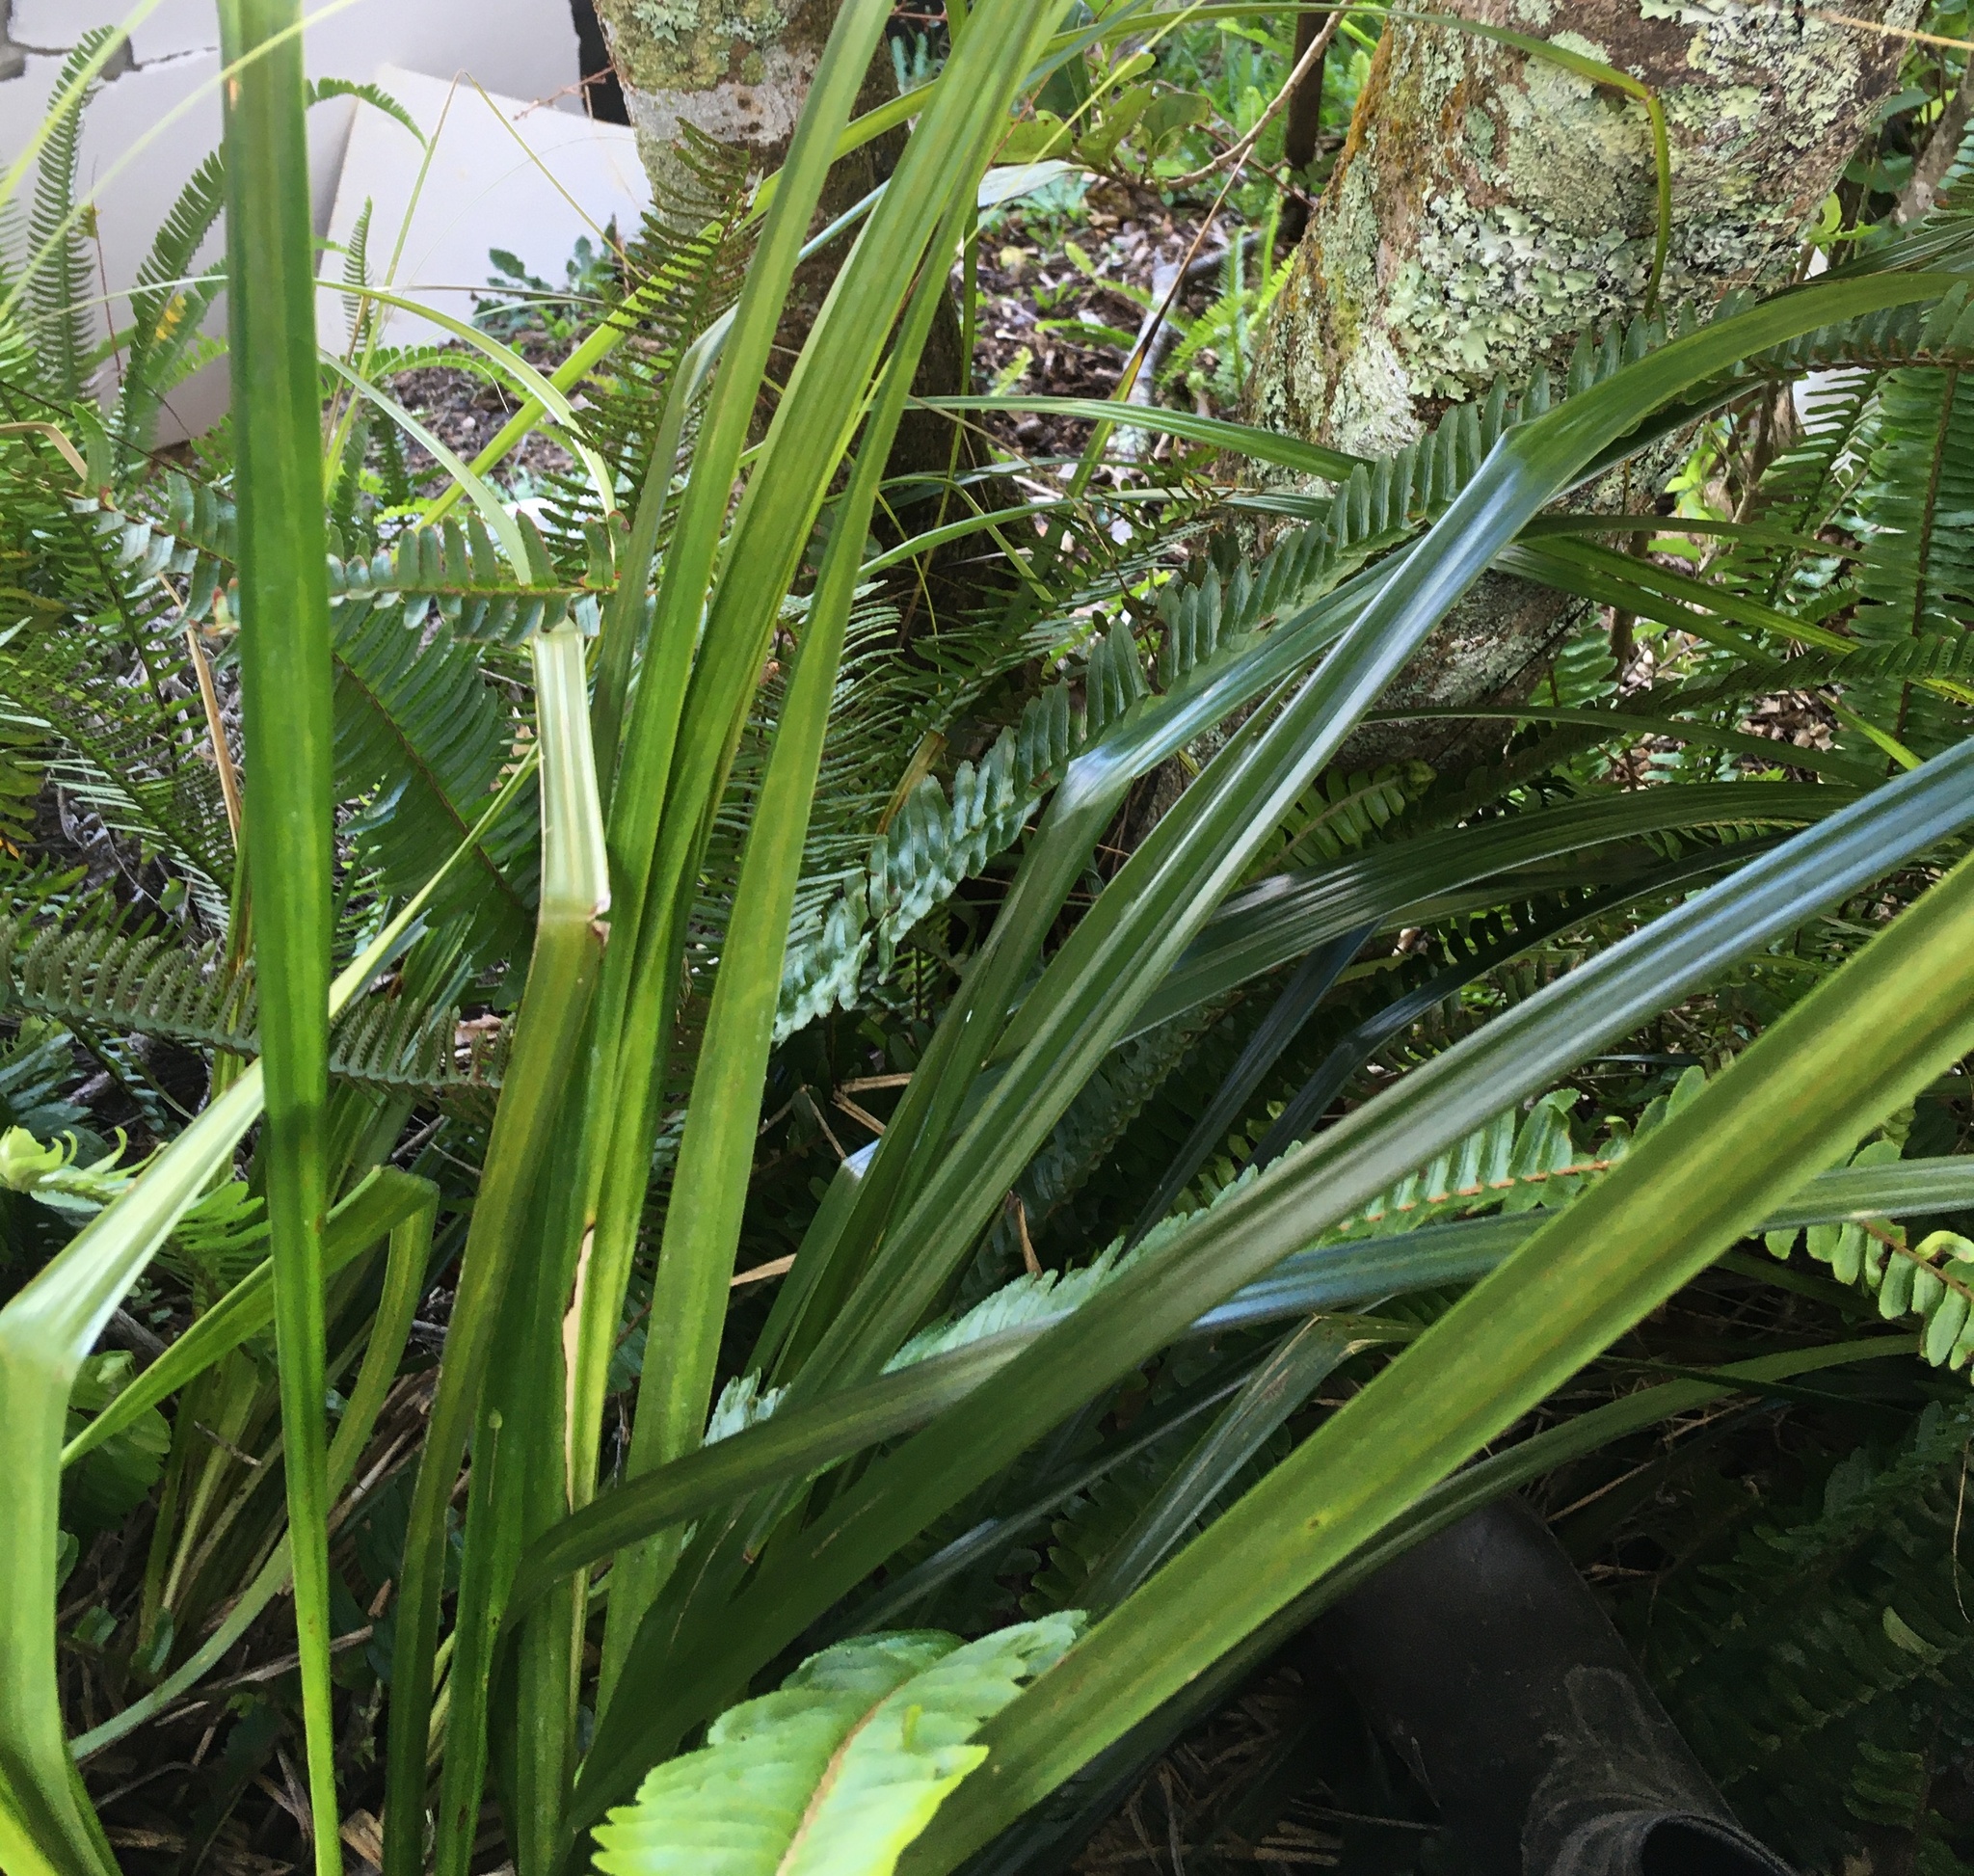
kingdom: Plantae
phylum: Tracheophyta
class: Liliopsida
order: Asparagales
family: Asteliaceae
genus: Astelia
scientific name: Astelia trinervia
